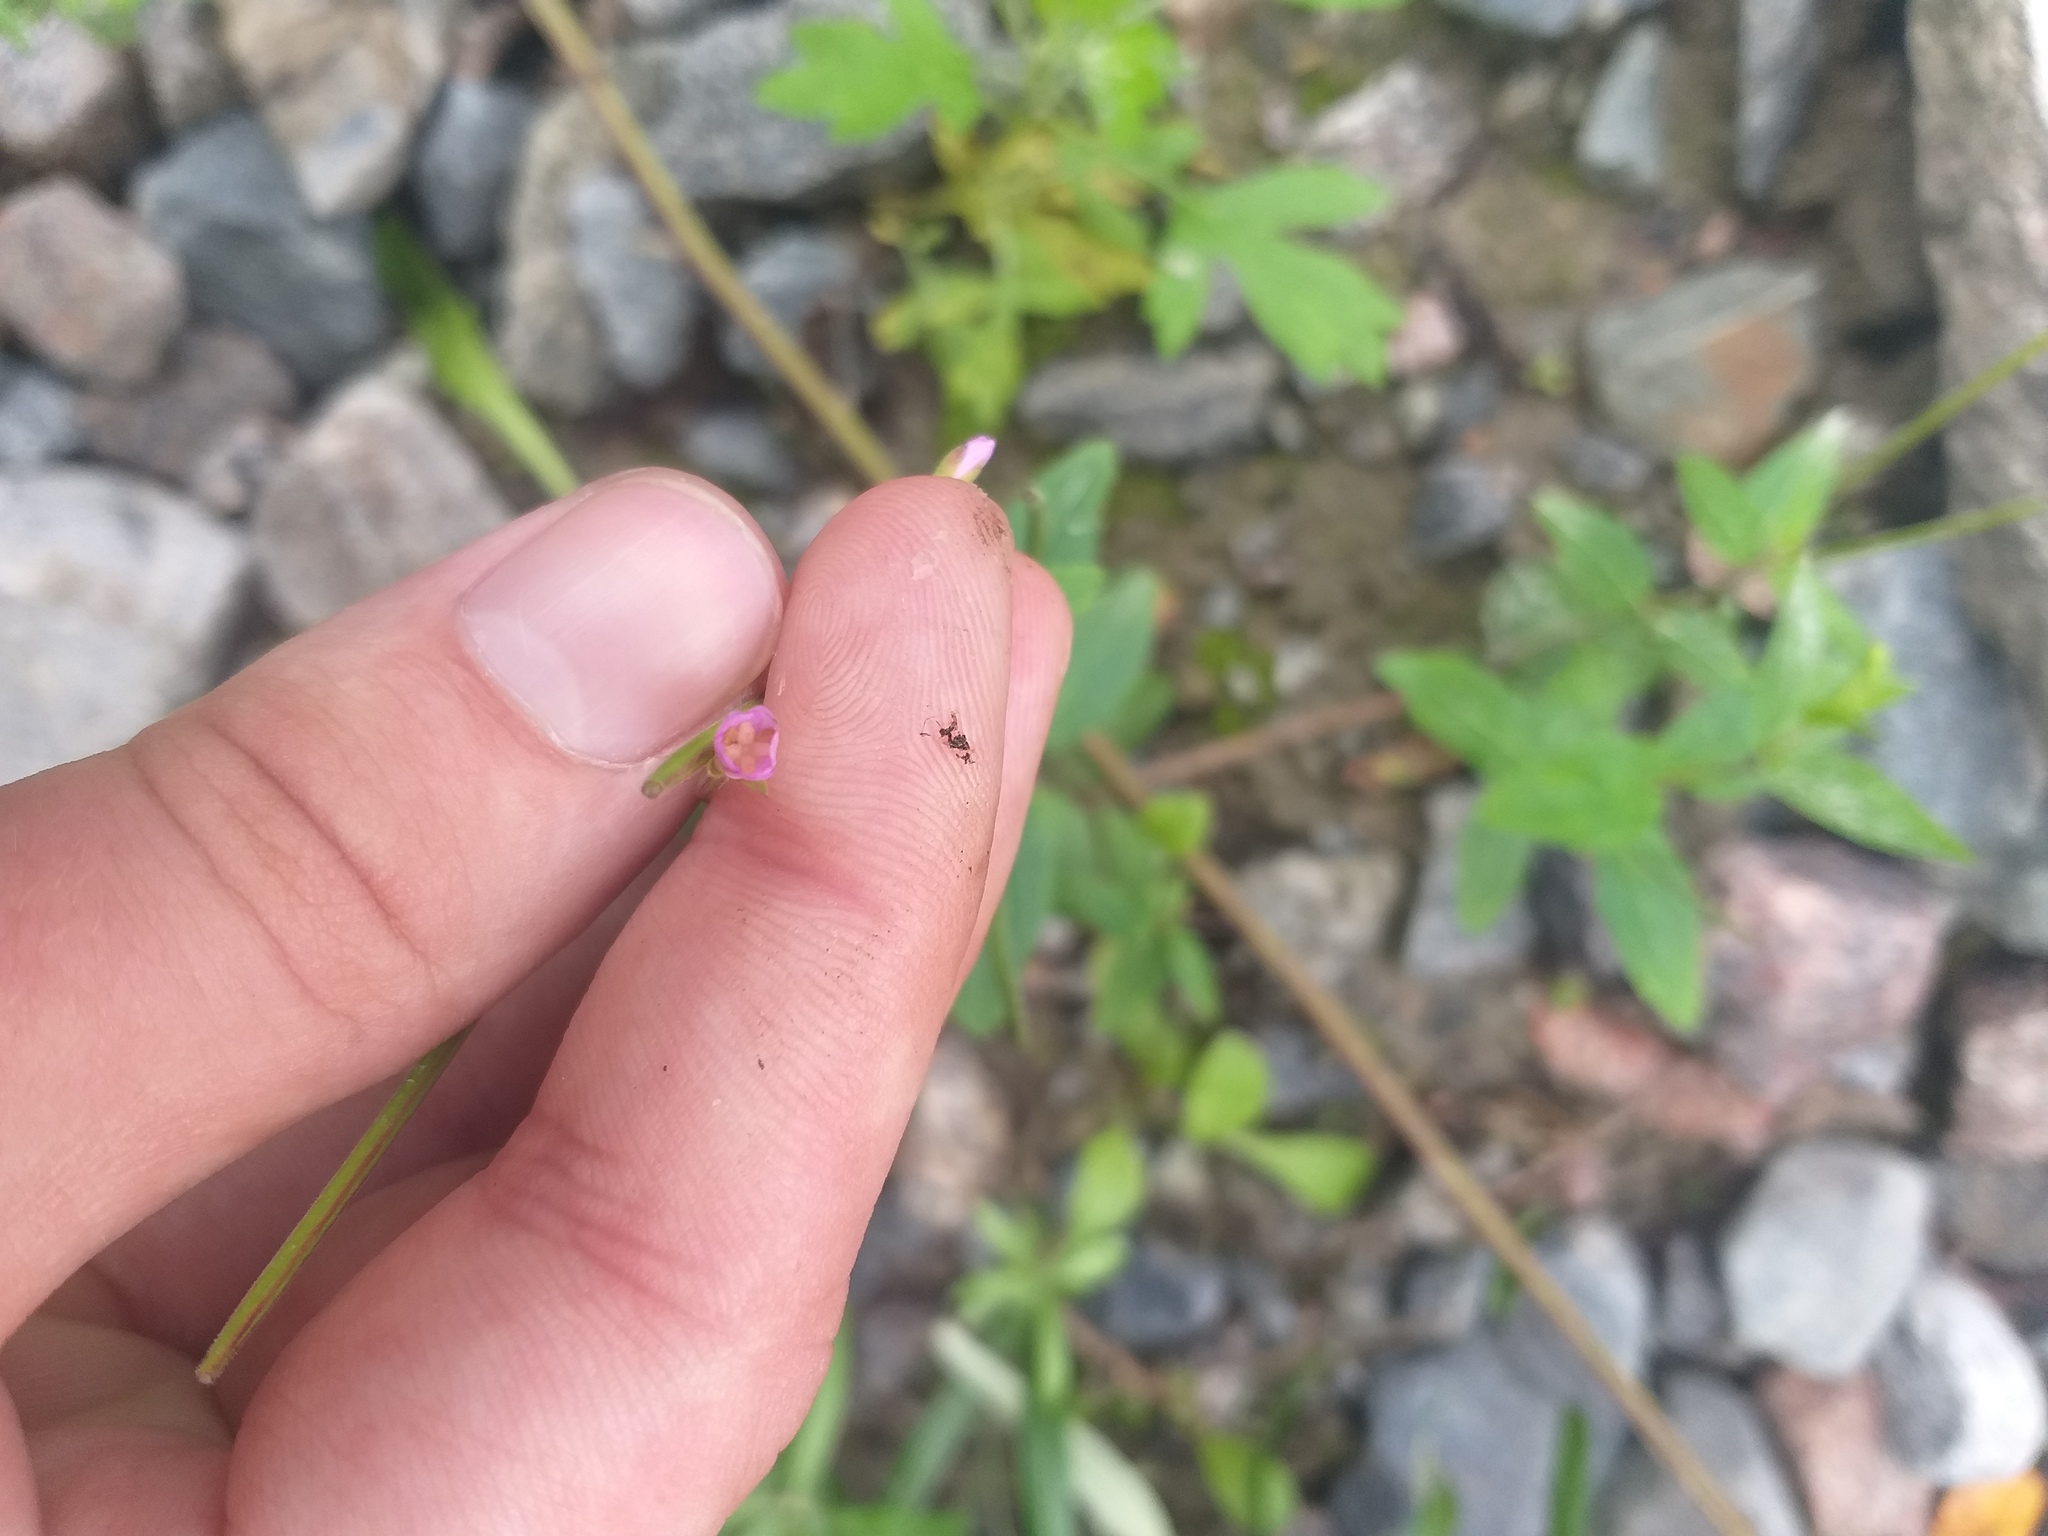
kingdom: Plantae
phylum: Tracheophyta
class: Magnoliopsida
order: Myrtales
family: Onagraceae
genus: Epilobium
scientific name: Epilobium montanum
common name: Broad-leaved willowherb
